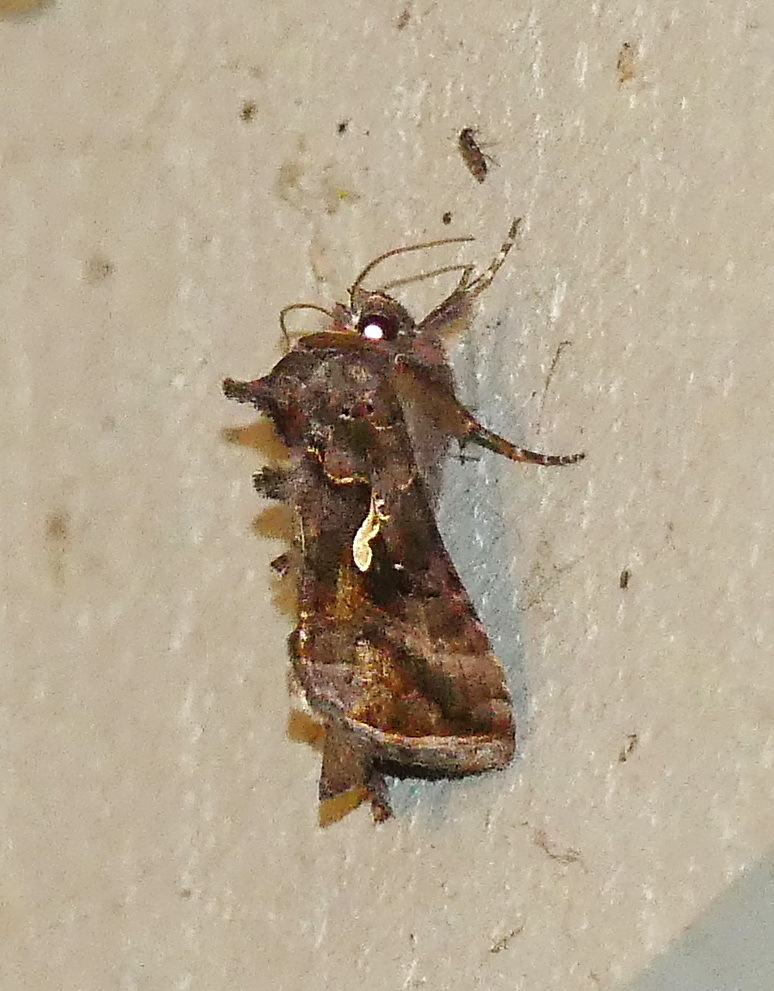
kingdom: Animalia
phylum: Arthropoda
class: Insecta
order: Lepidoptera
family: Noctuidae
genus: Autographa
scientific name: Autographa precationis
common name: Common looper moth
